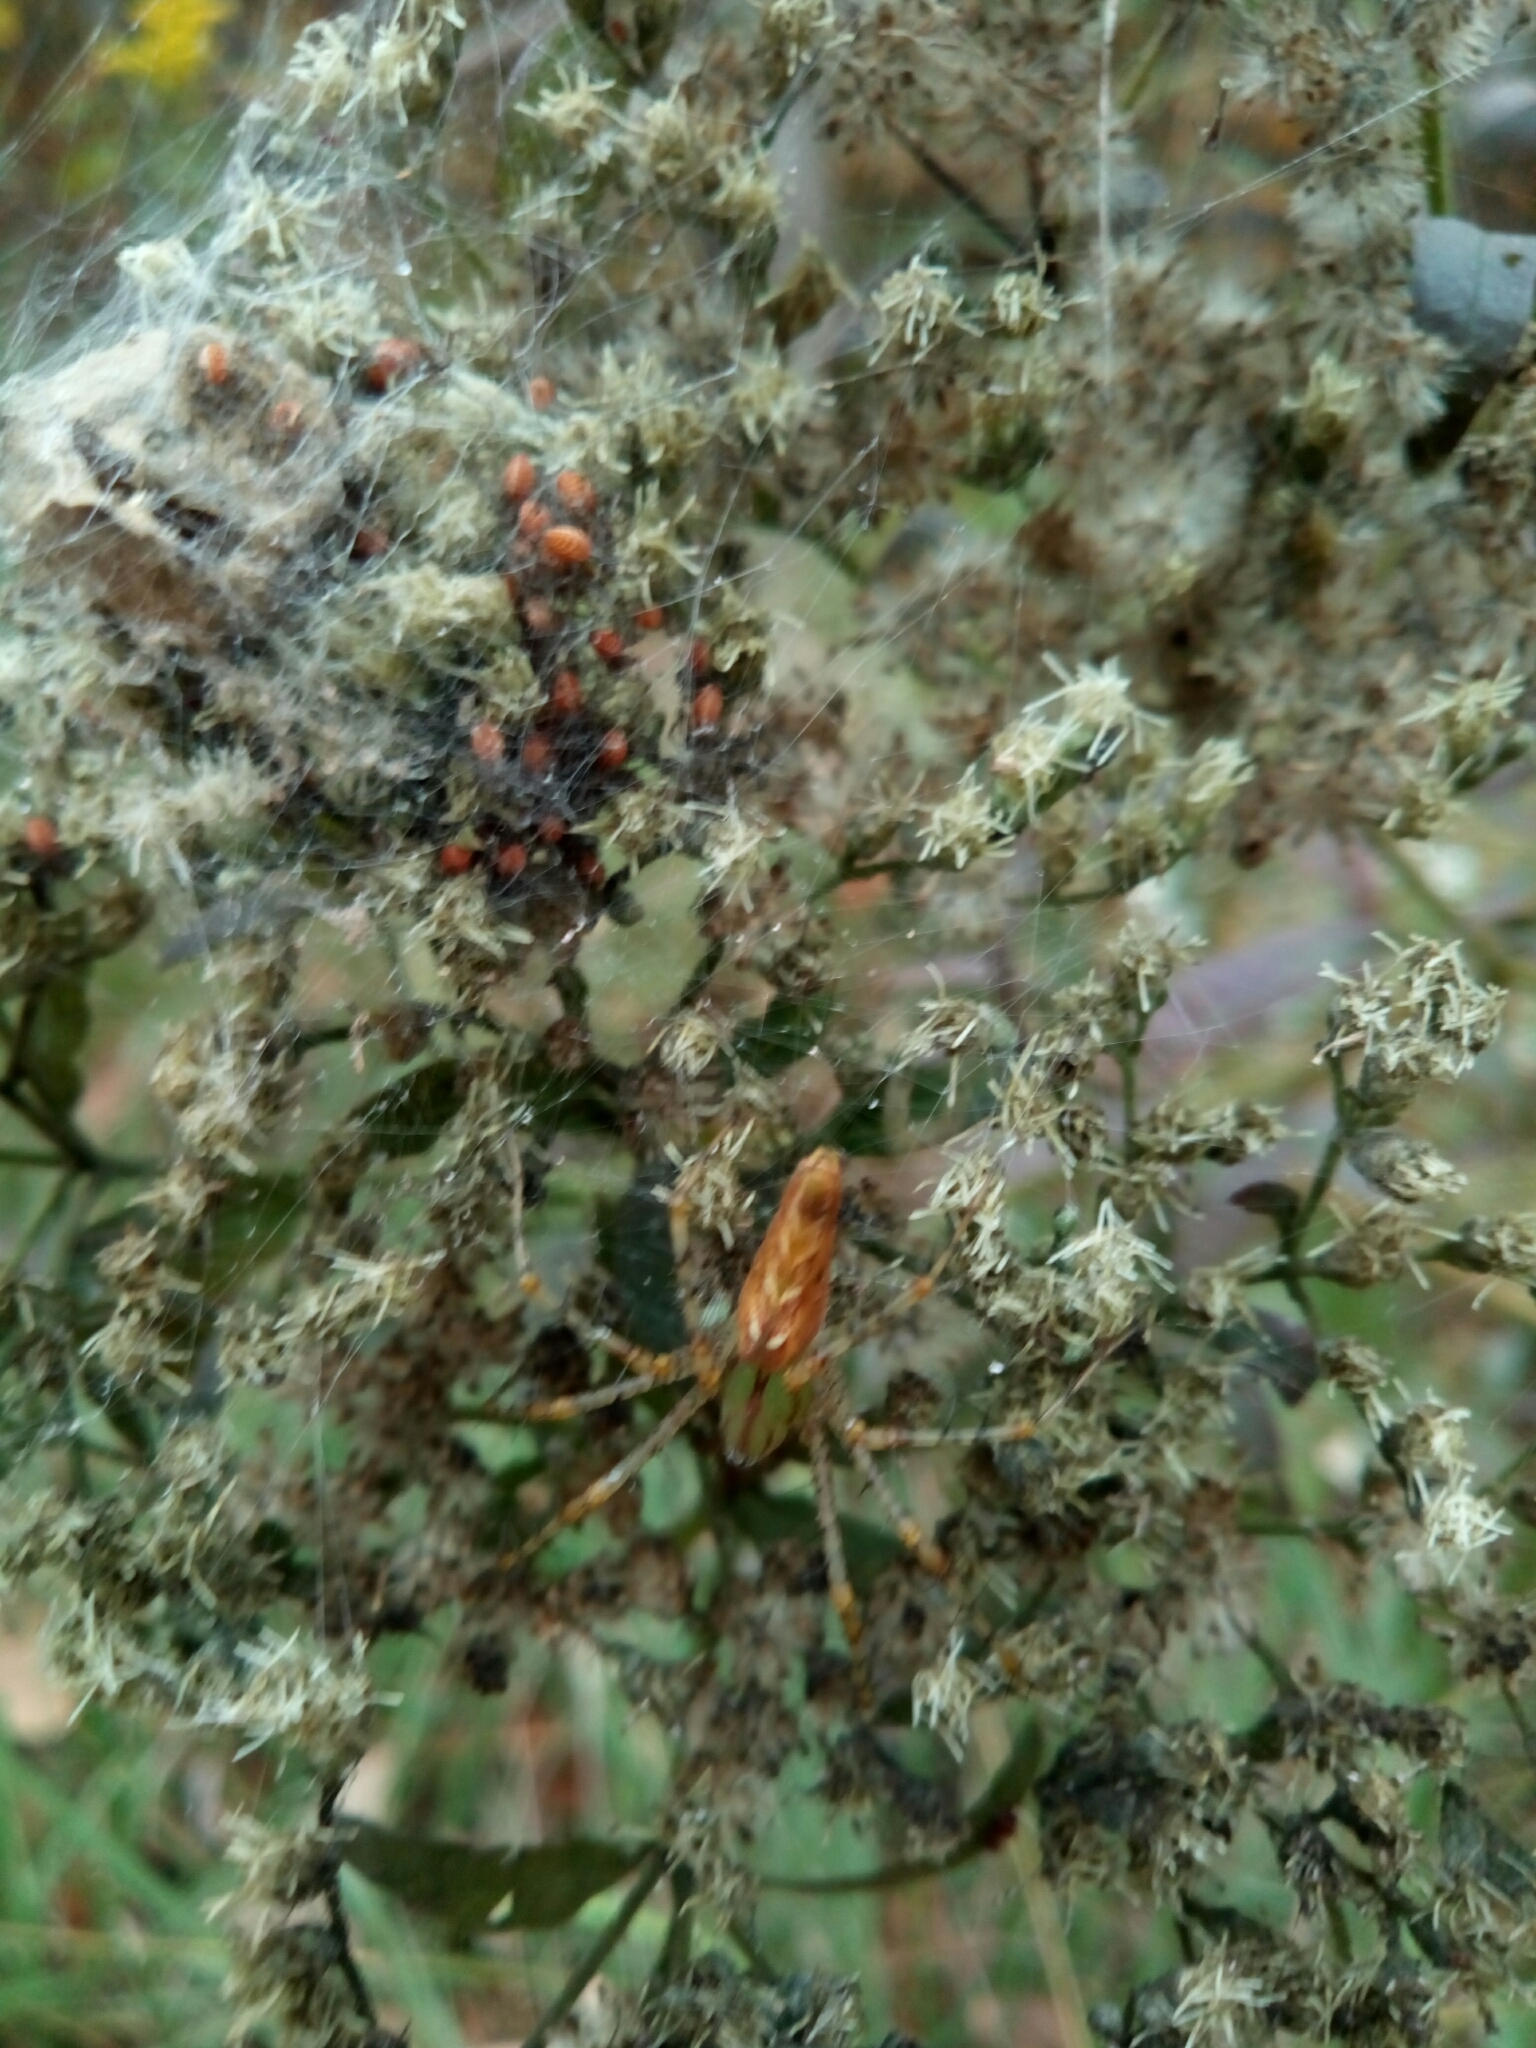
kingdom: Animalia
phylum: Arthropoda
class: Arachnida
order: Araneae
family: Oxyopidae
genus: Peucetia
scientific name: Peucetia viridans
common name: Lynx spiders
